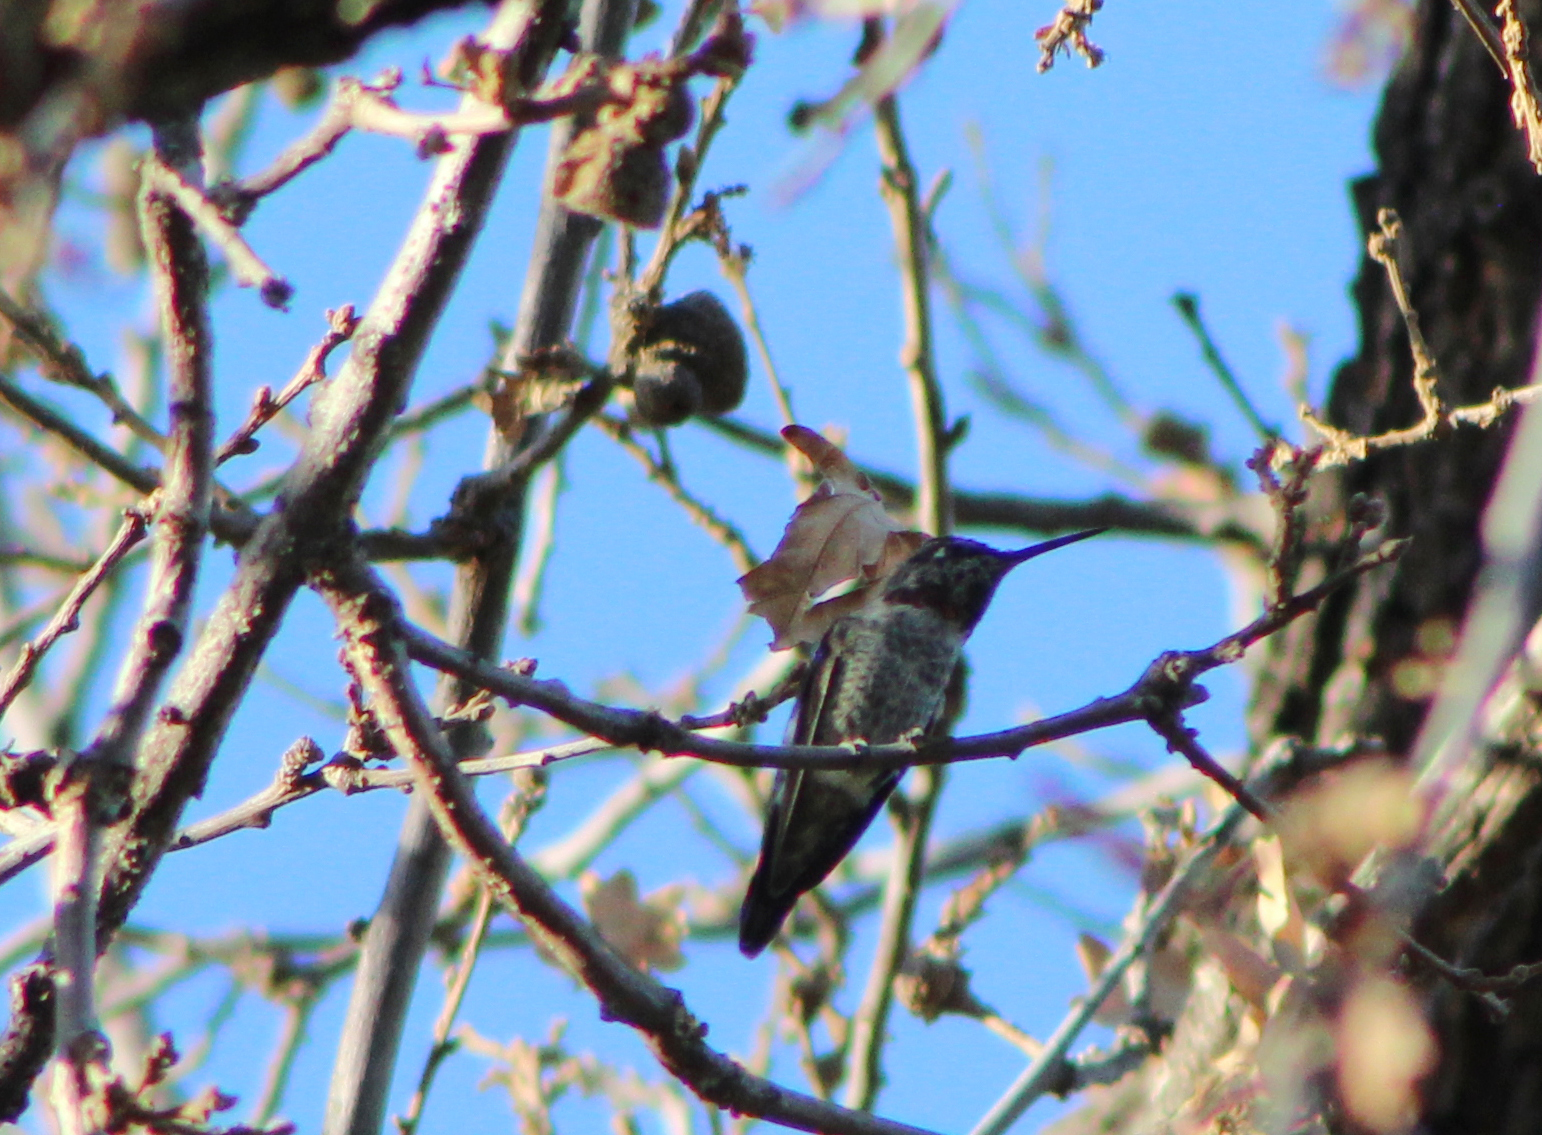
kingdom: Animalia
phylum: Chordata
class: Aves
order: Apodiformes
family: Trochilidae
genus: Calypte
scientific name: Calypte anna
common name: Anna's hummingbird
